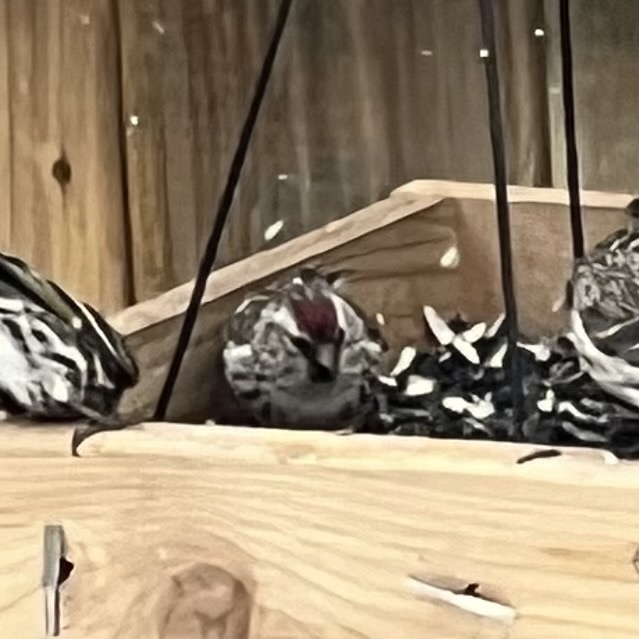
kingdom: Animalia
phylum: Chordata
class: Aves
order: Passeriformes
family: Fringillidae
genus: Acanthis
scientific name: Acanthis flammea
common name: Common redpoll
